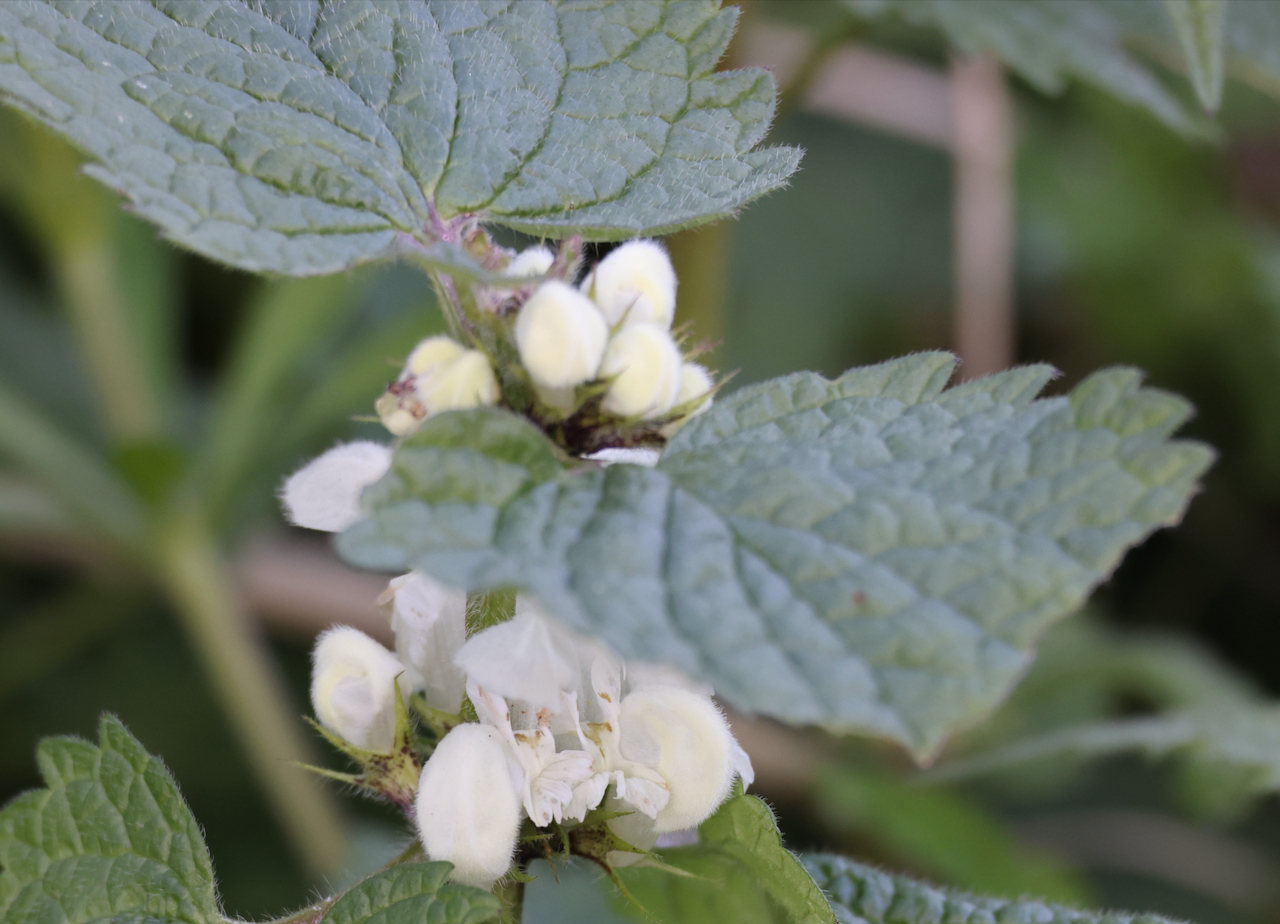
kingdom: Plantae
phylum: Tracheophyta
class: Magnoliopsida
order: Lamiales
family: Lamiaceae
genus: Lamium
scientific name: Lamium album
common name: White dead-nettle
